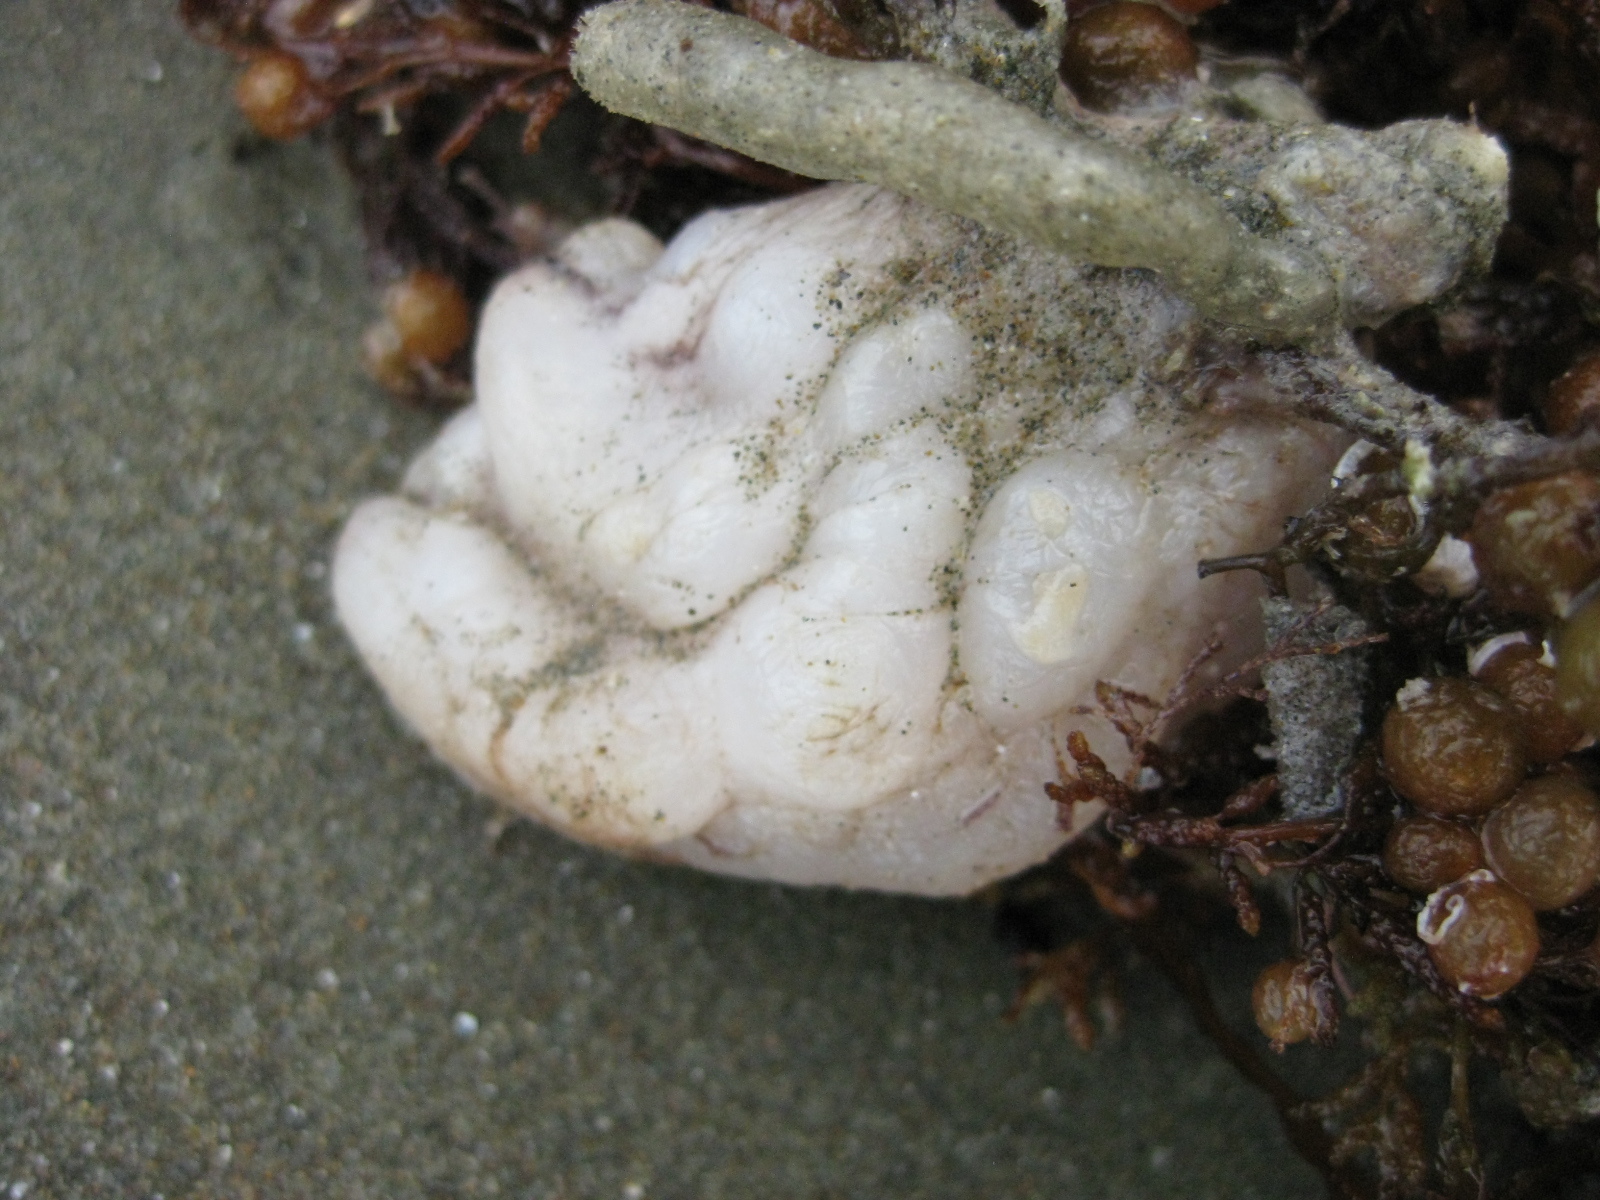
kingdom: Animalia
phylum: Chordata
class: Ascidiacea
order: Stolidobranchia
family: Styelidae
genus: Styela
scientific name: Styela plicata
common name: Pleated tunicate
